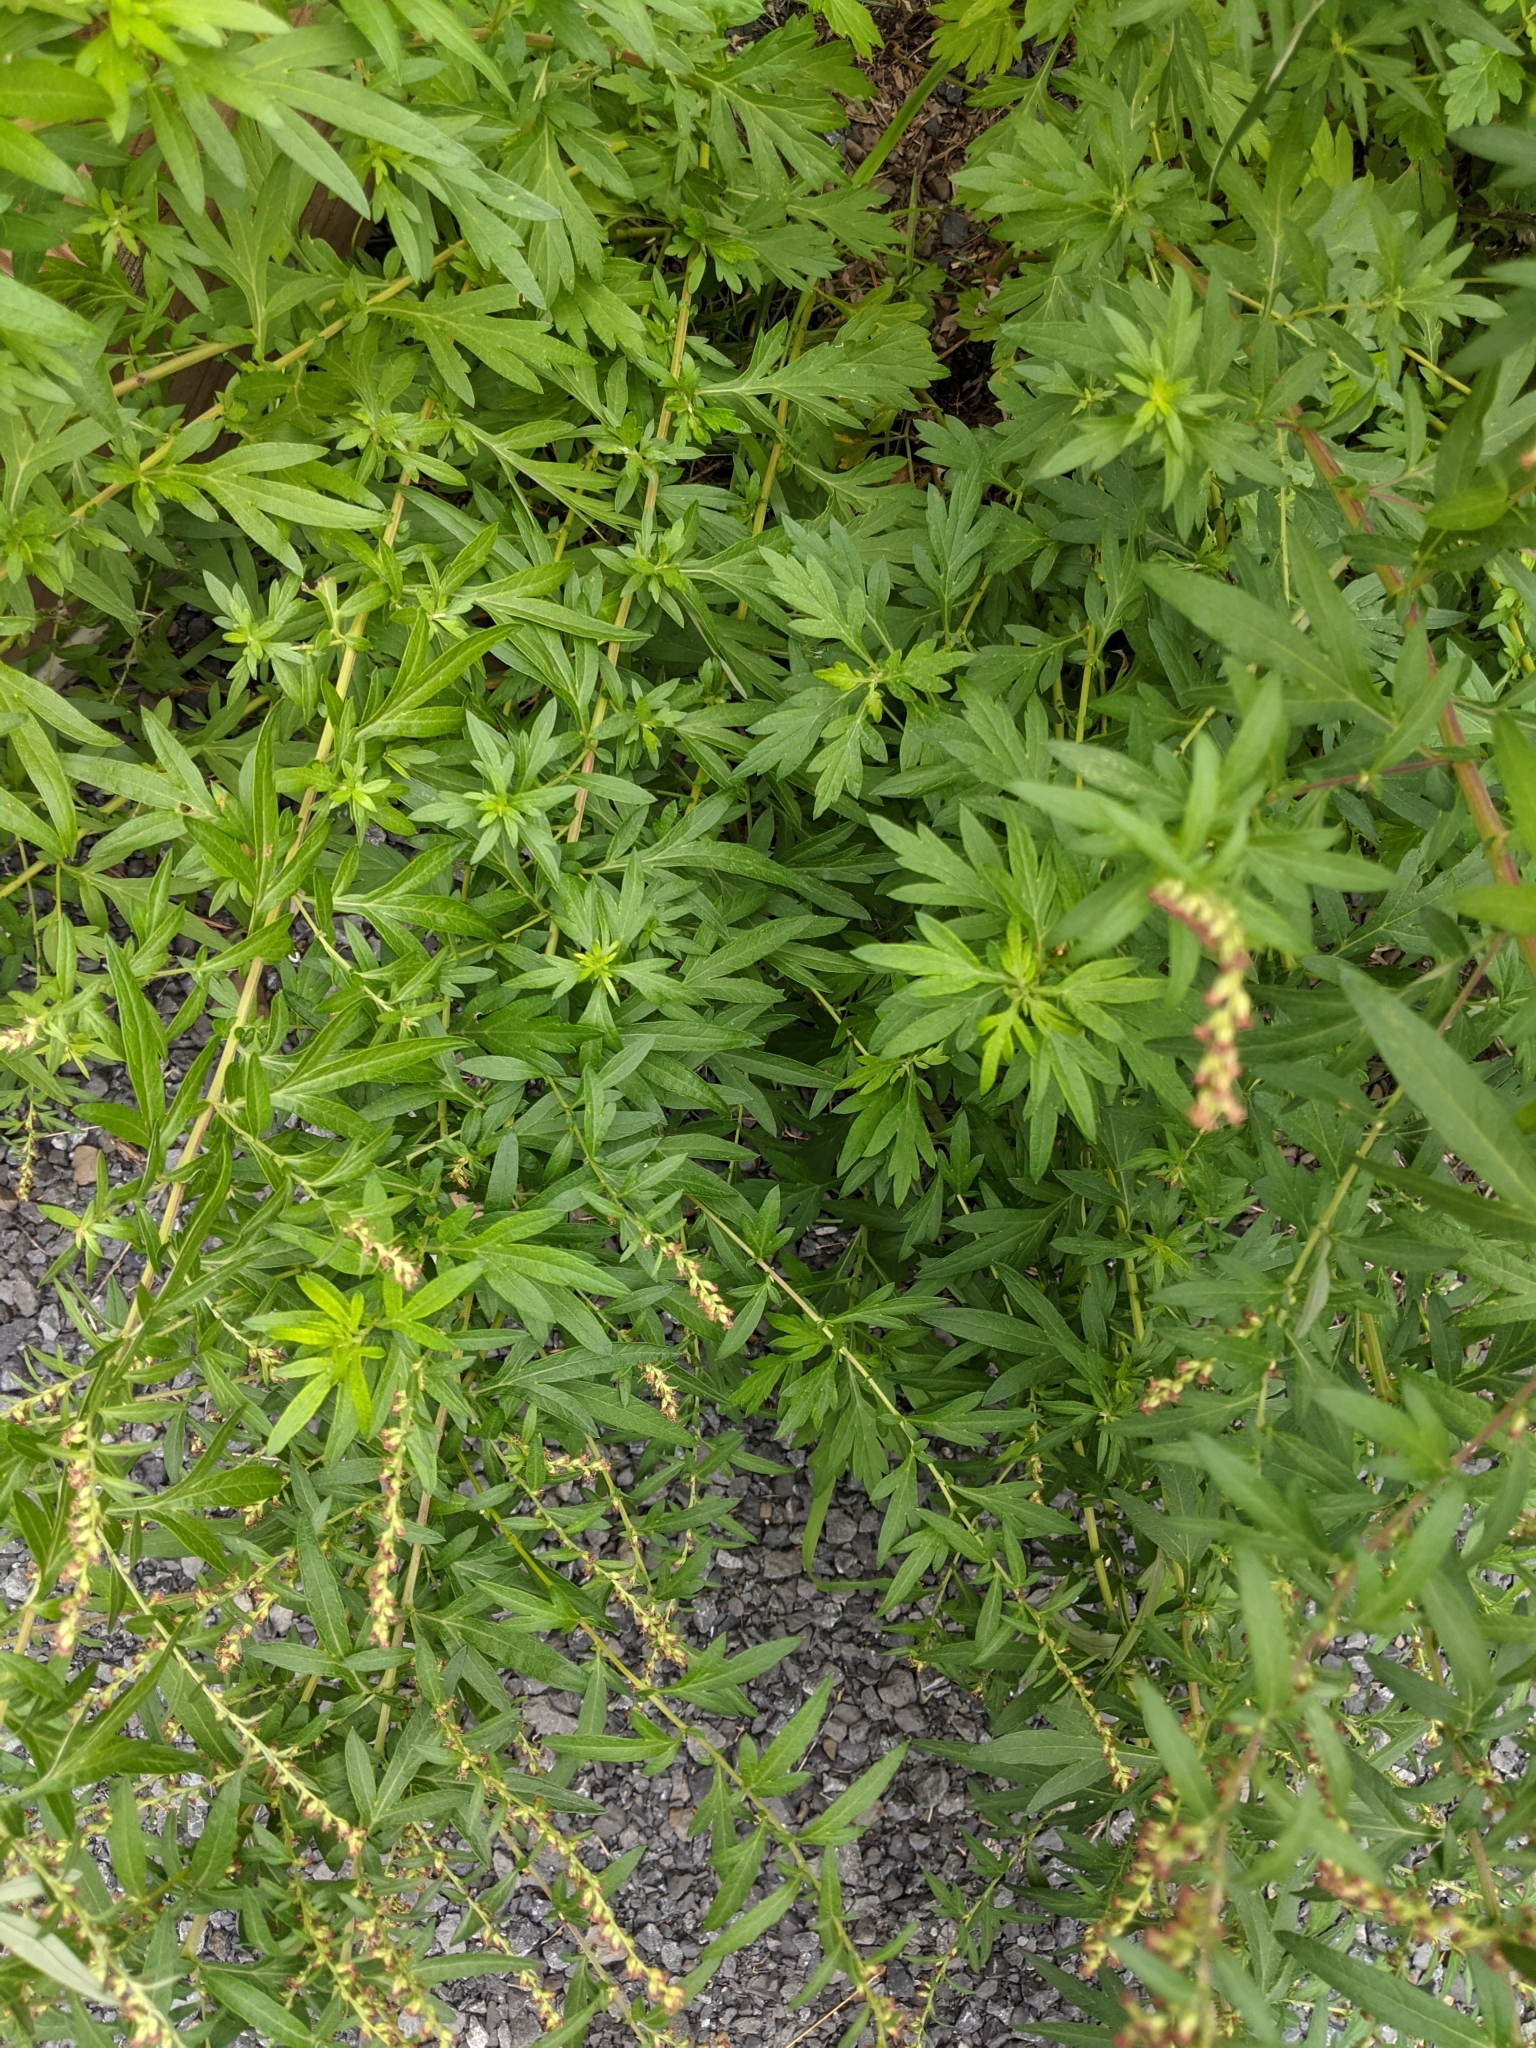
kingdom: Plantae
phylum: Tracheophyta
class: Magnoliopsida
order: Asterales
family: Asteraceae
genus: Artemisia
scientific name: Artemisia vulgaris
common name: Mugwort
